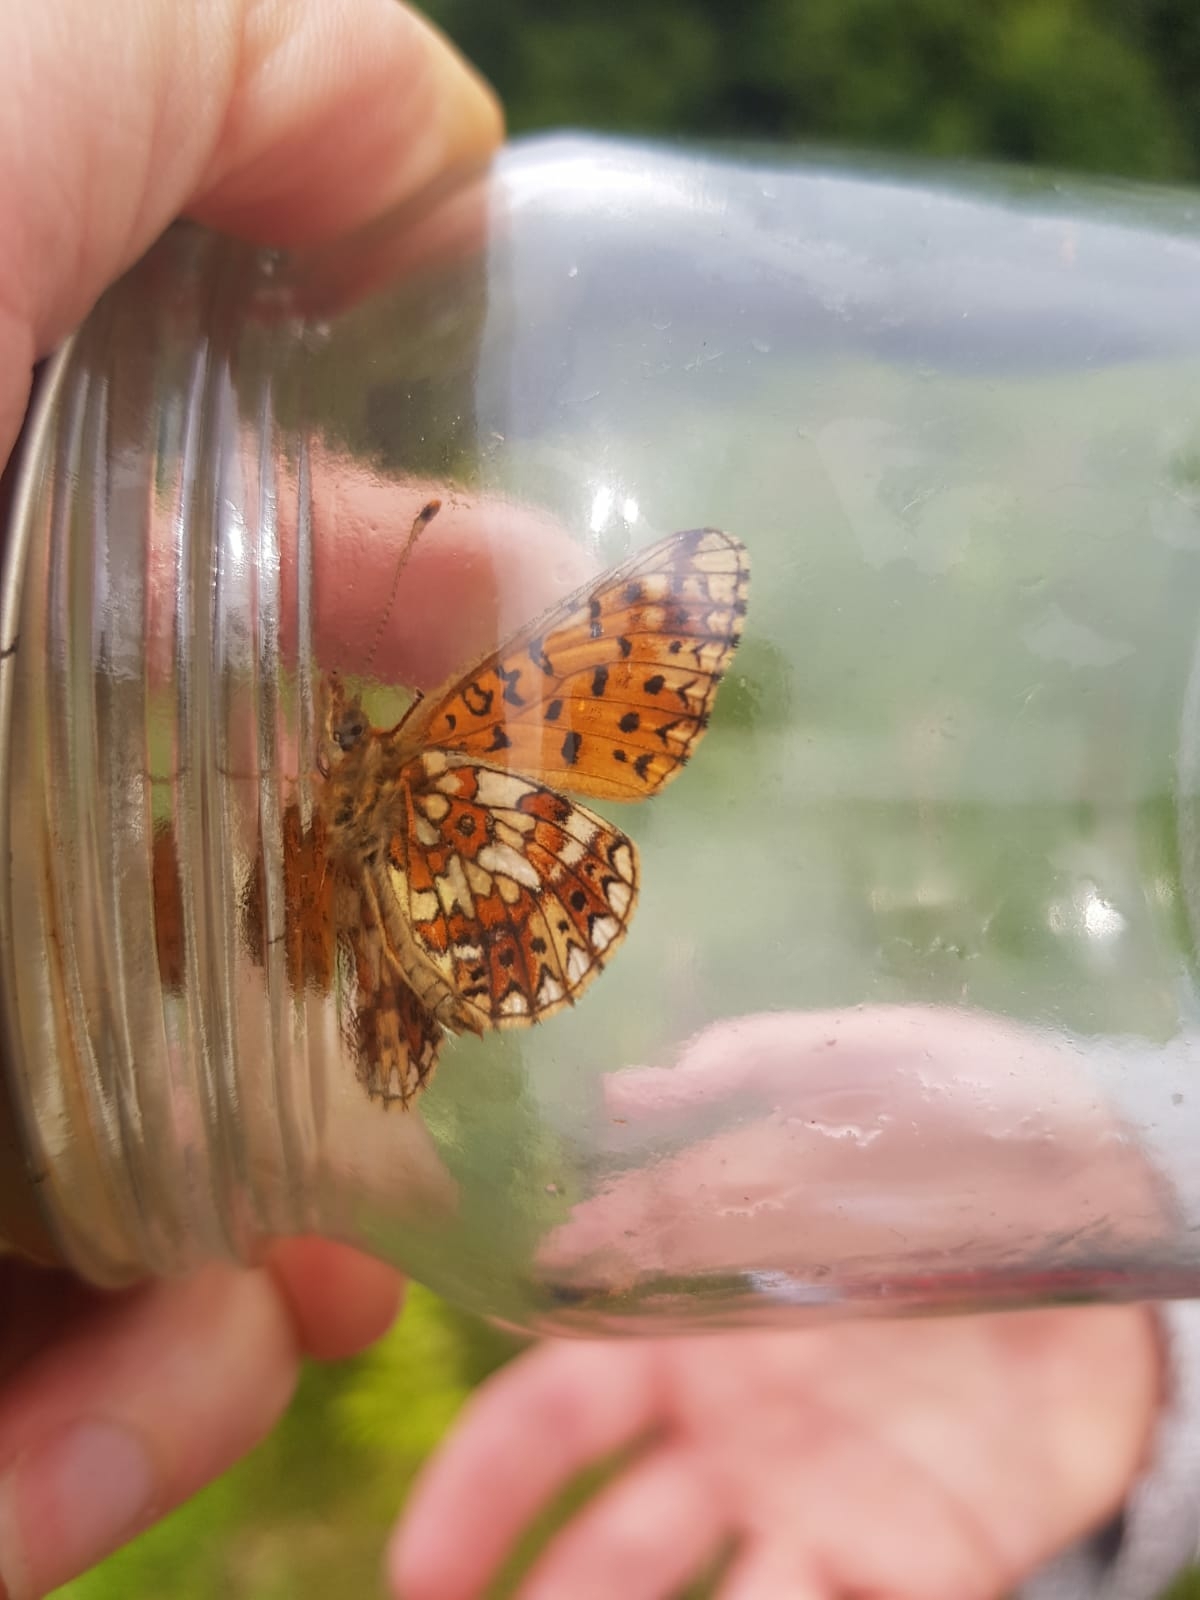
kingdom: Animalia
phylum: Arthropoda
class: Insecta
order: Lepidoptera
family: Nymphalidae
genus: Boloria
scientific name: Boloria selene
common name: Small pearl-bordered fritillary
